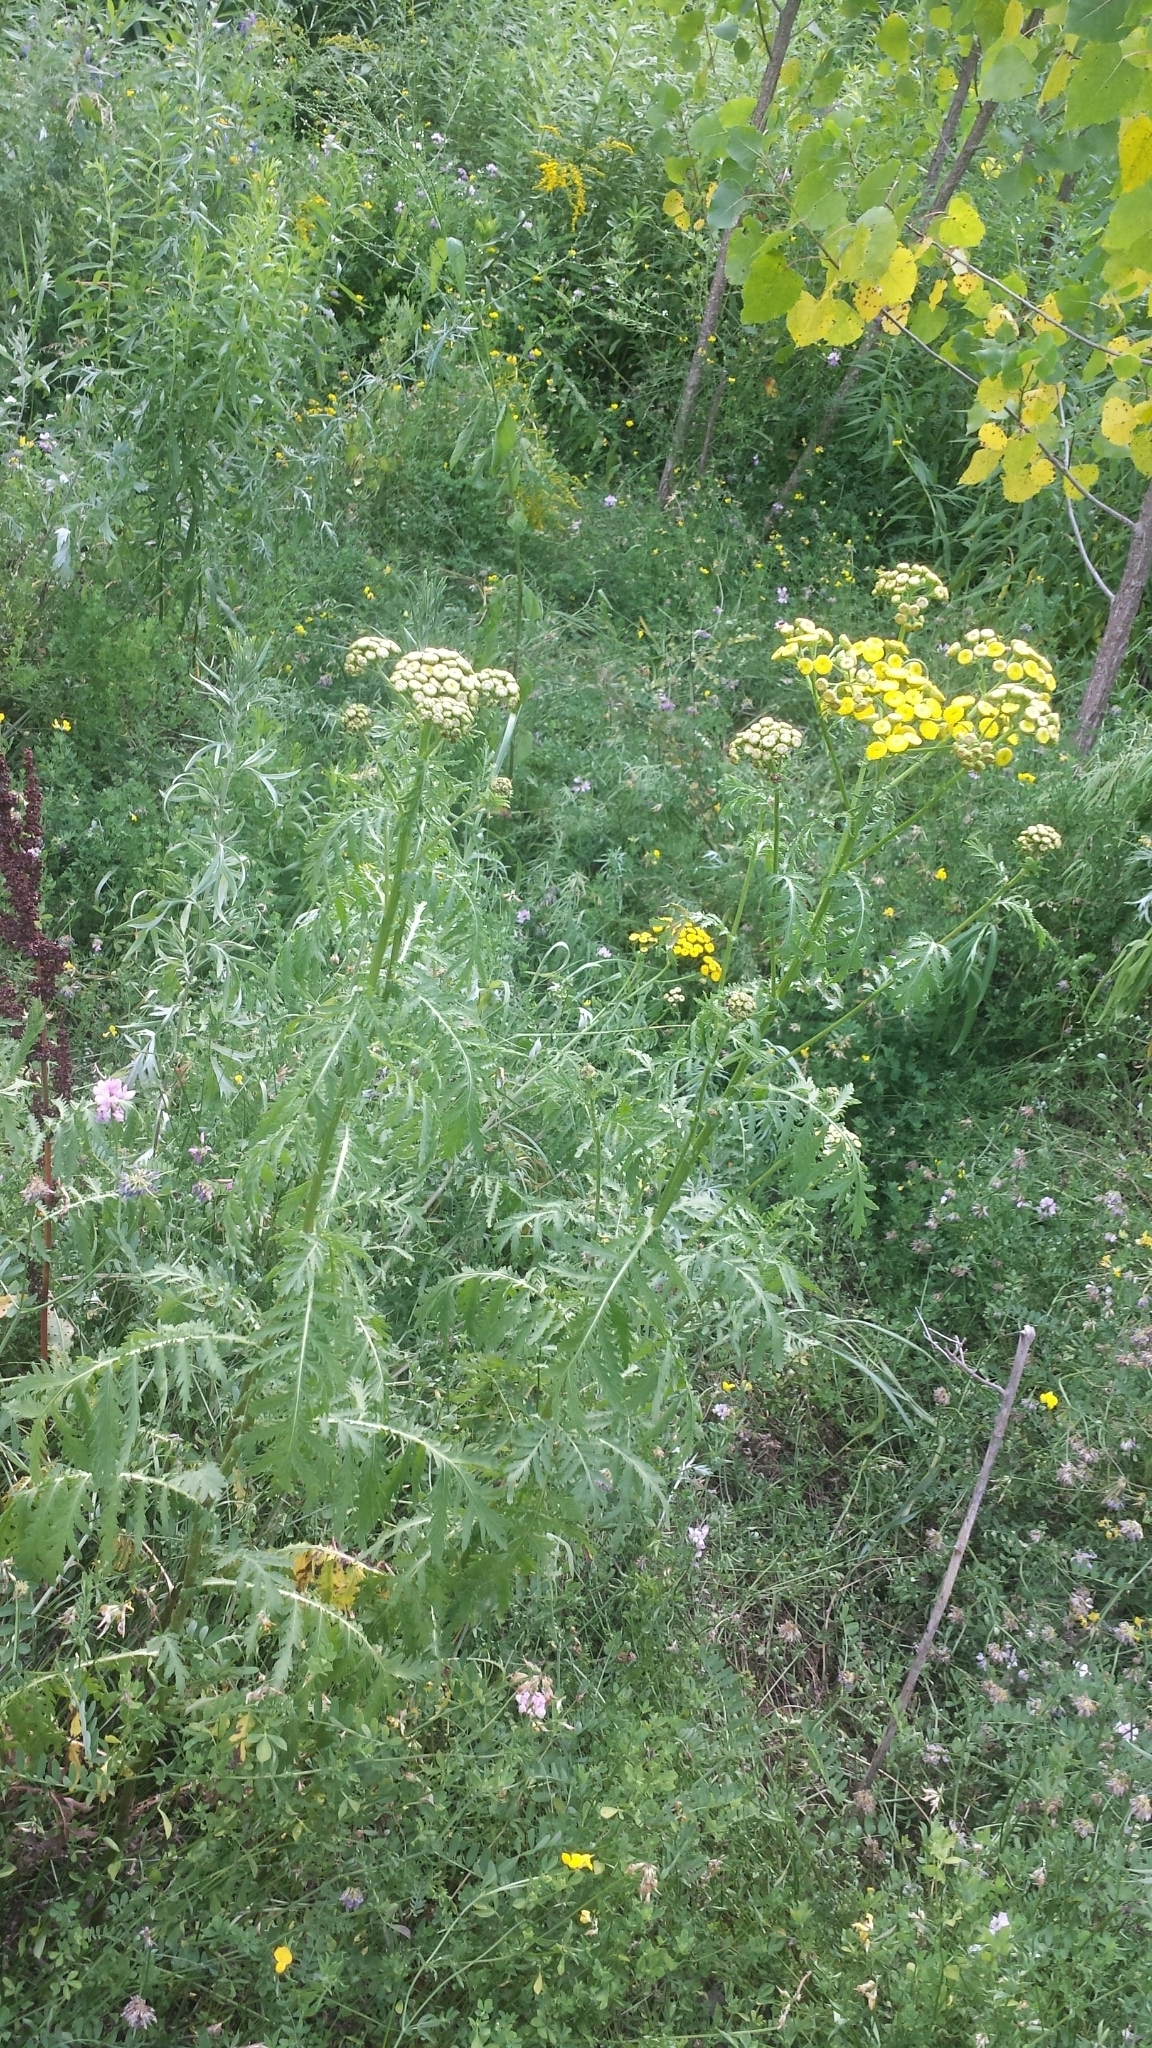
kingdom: Plantae
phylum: Tracheophyta
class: Magnoliopsida
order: Asterales
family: Asteraceae
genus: Tanacetum
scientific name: Tanacetum vulgare
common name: Common tansy
